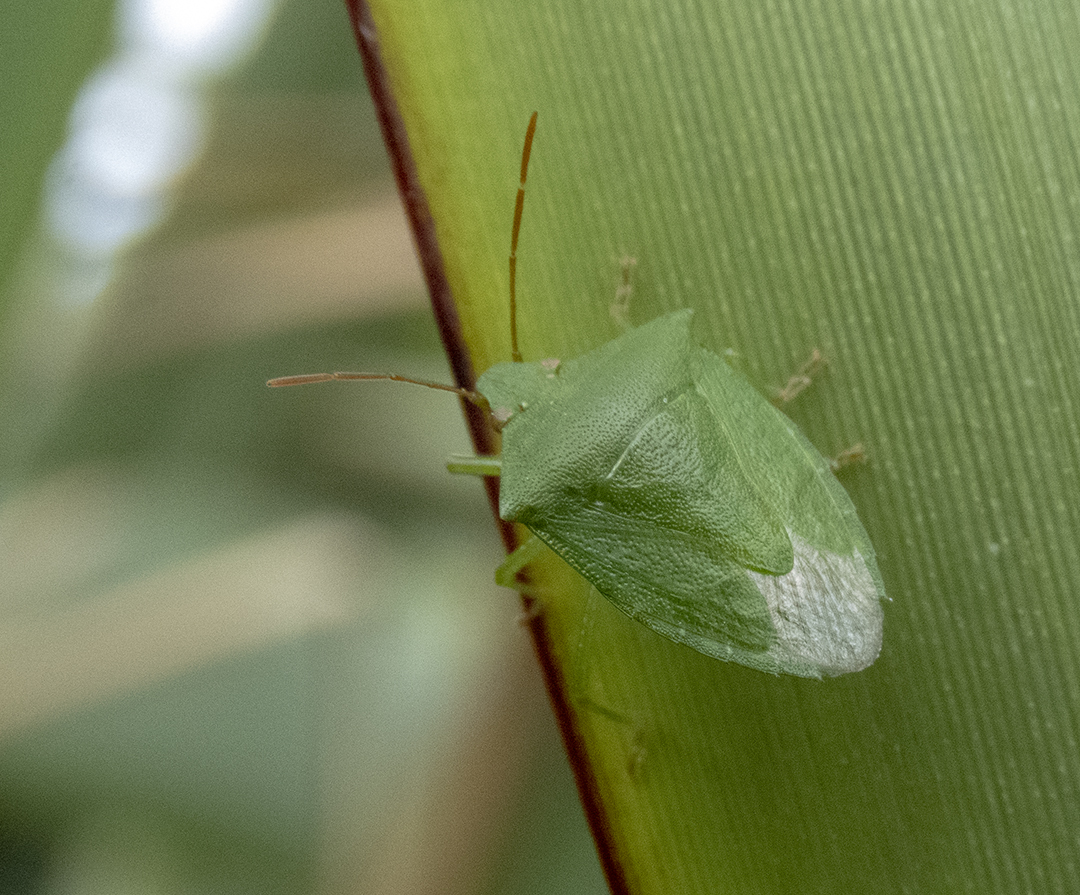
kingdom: Animalia
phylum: Arthropoda
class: Insecta
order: Hemiptera
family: Pentatomidae
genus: Cuspicona
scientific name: Cuspicona simplex
